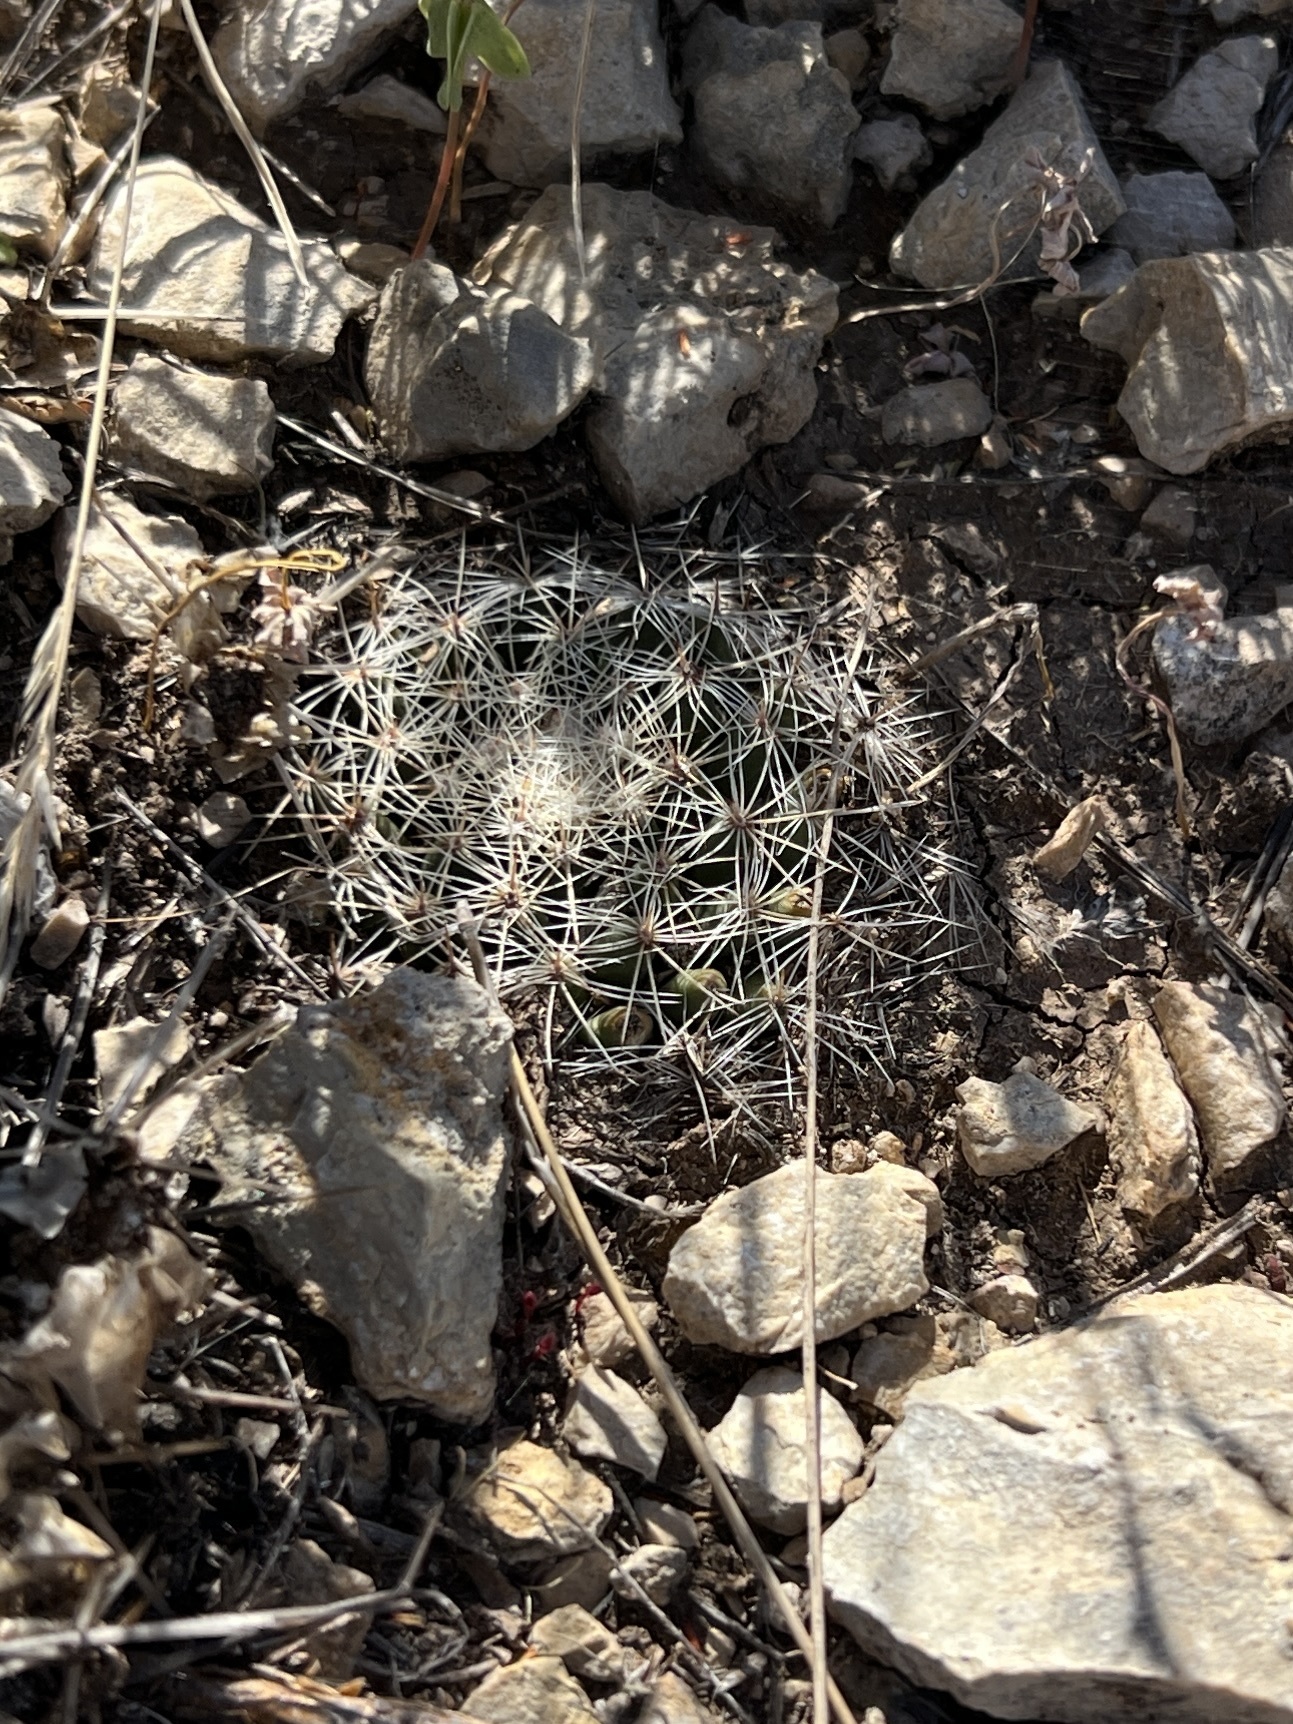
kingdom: Plantae
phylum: Tracheophyta
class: Magnoliopsida
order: Caryophyllales
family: Cactaceae
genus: Mammillaria
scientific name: Mammillaria heyderi
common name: Little nipple cactus
